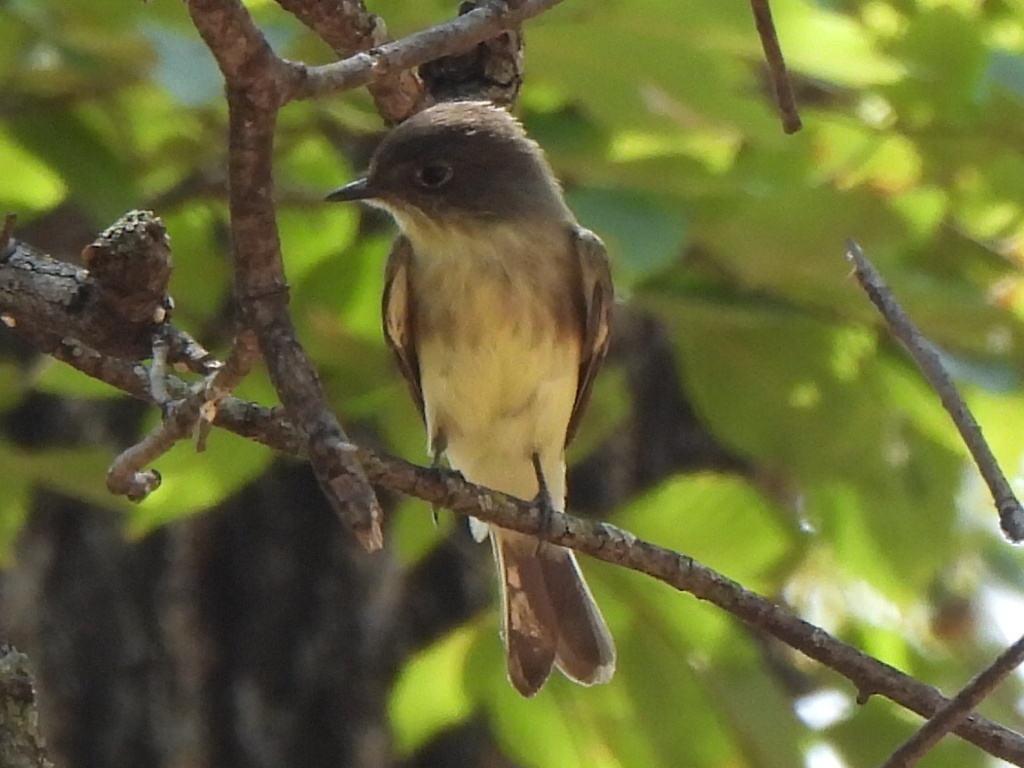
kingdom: Animalia
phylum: Chordata
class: Aves
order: Passeriformes
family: Tyrannidae
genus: Sayornis
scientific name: Sayornis phoebe
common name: Eastern phoebe
